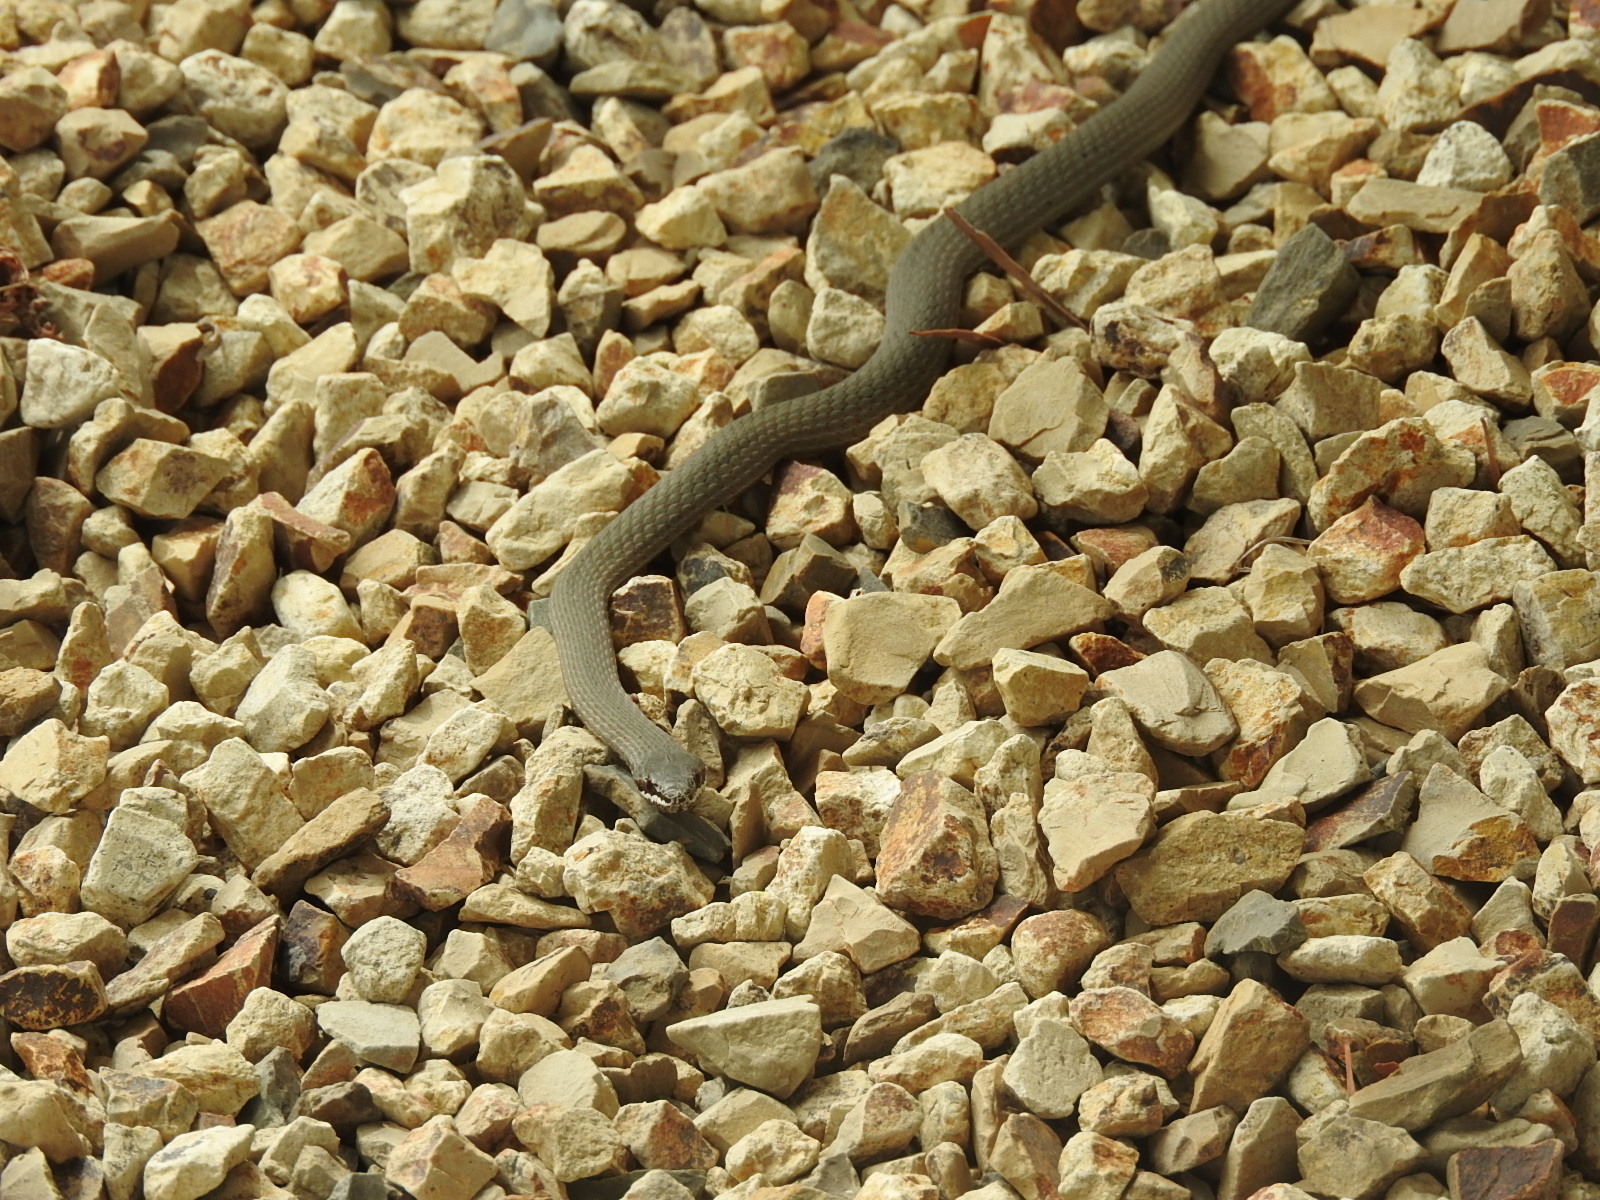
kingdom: Animalia
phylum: Chordata
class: Squamata
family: Elapidae
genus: Drysdalia
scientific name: Drysdalia coronoides
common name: White-lipped snake
